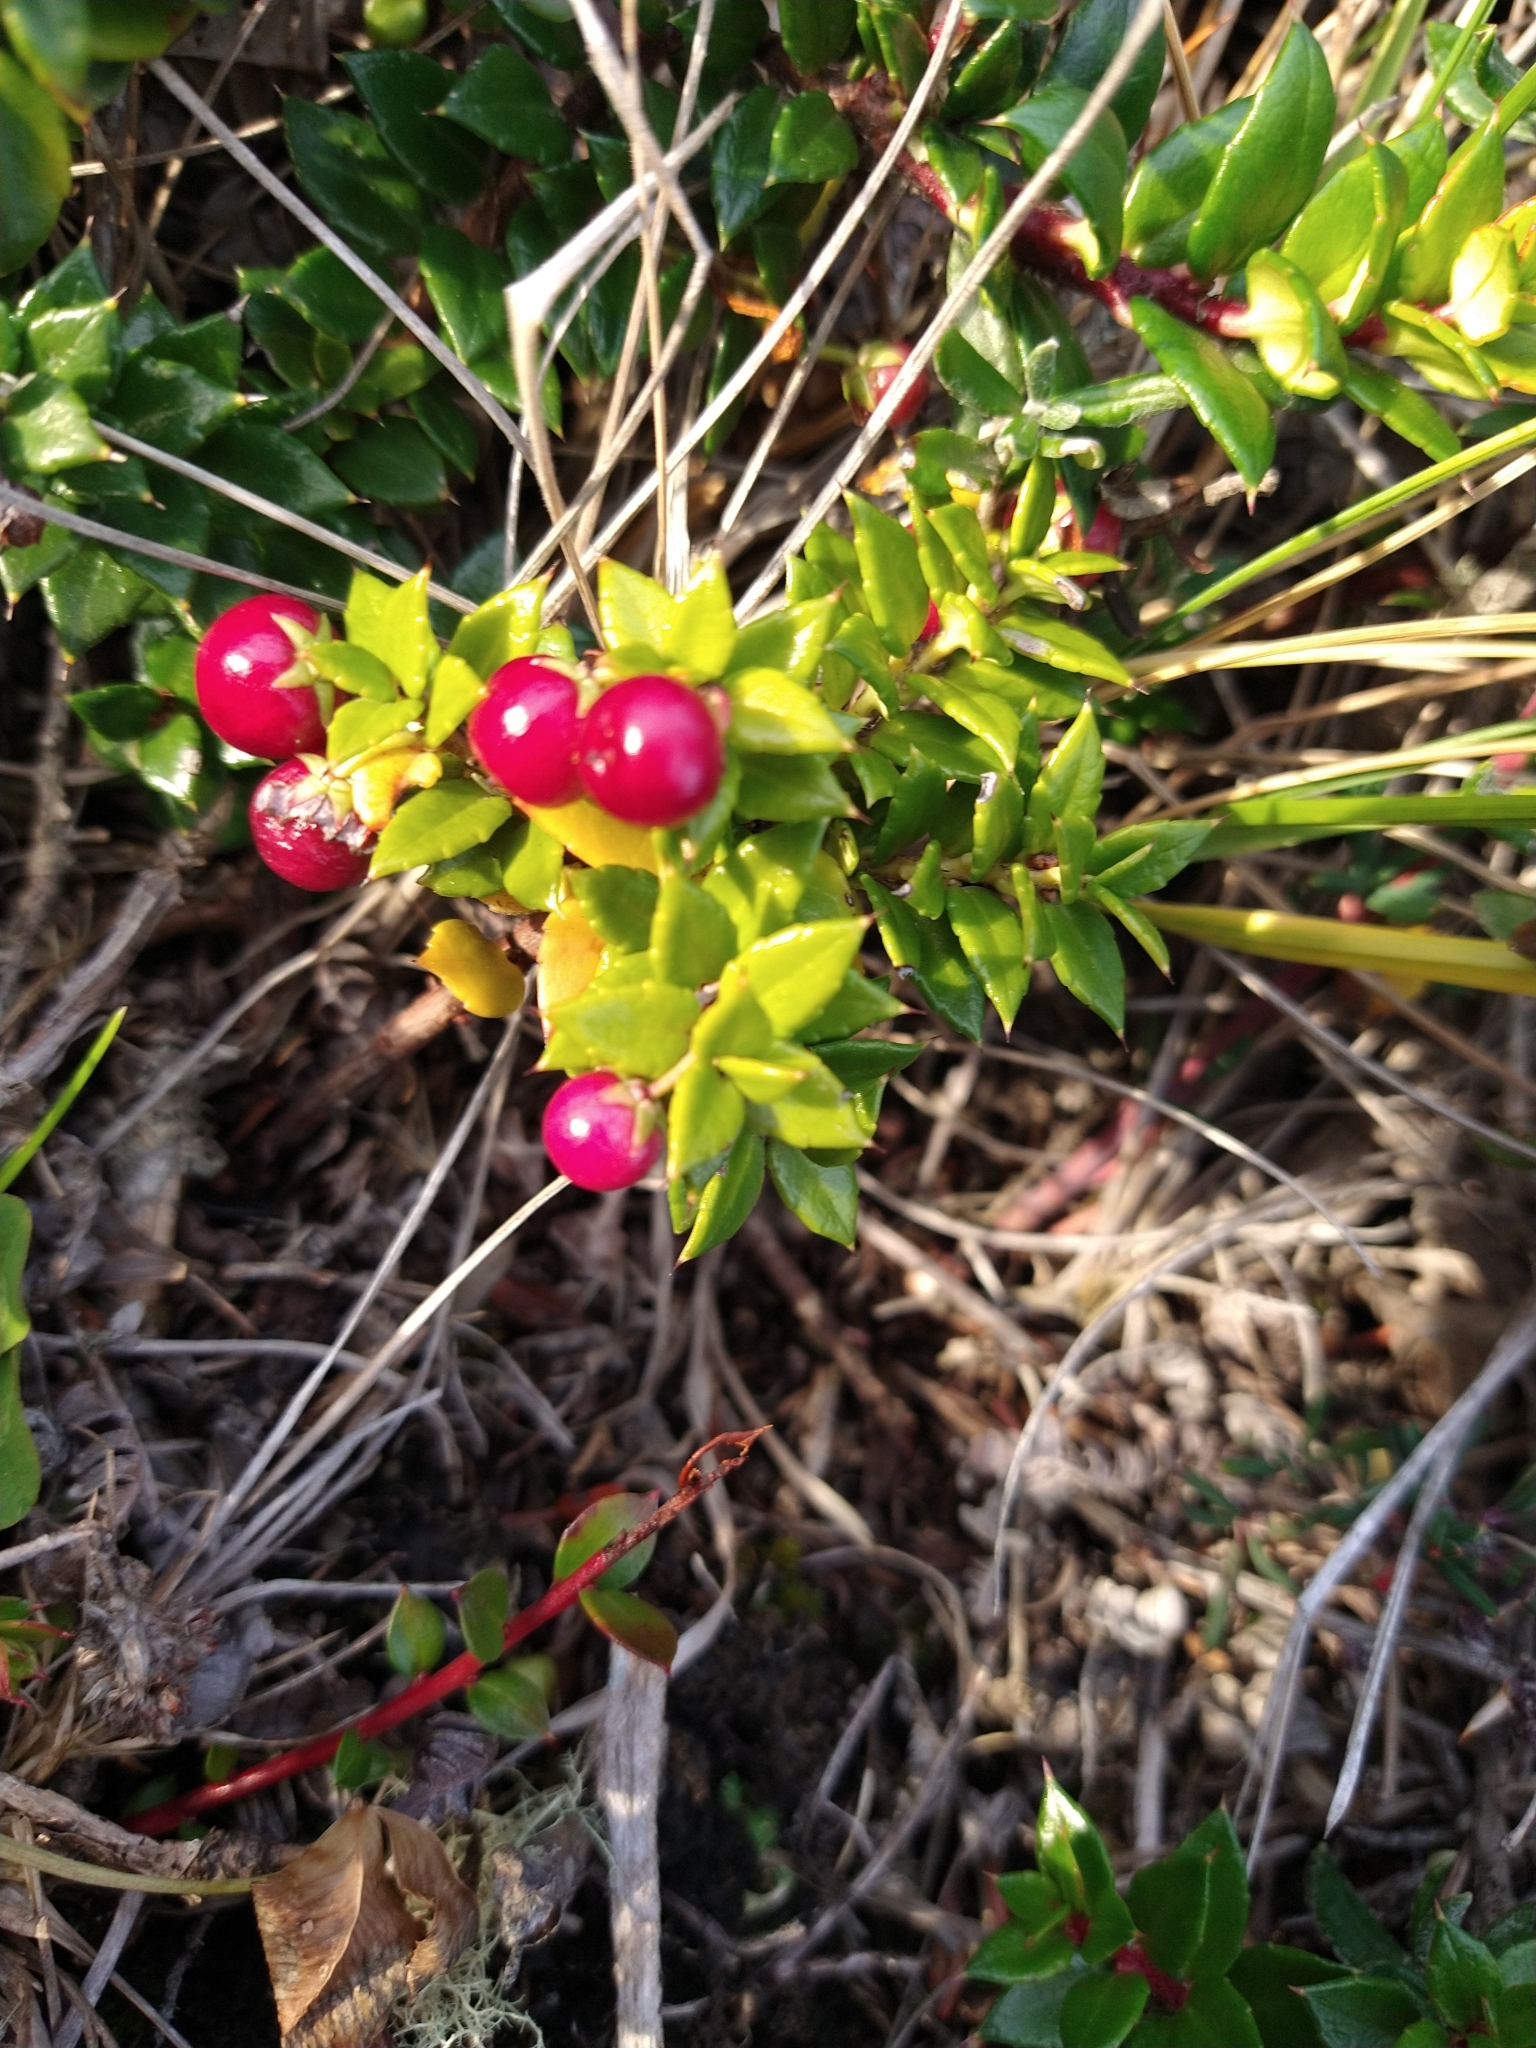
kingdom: Plantae
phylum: Tracheophyta
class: Magnoliopsida
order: Ericales
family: Ericaceae
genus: Gaultheria
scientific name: Gaultheria mucronata
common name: Prickly heath
